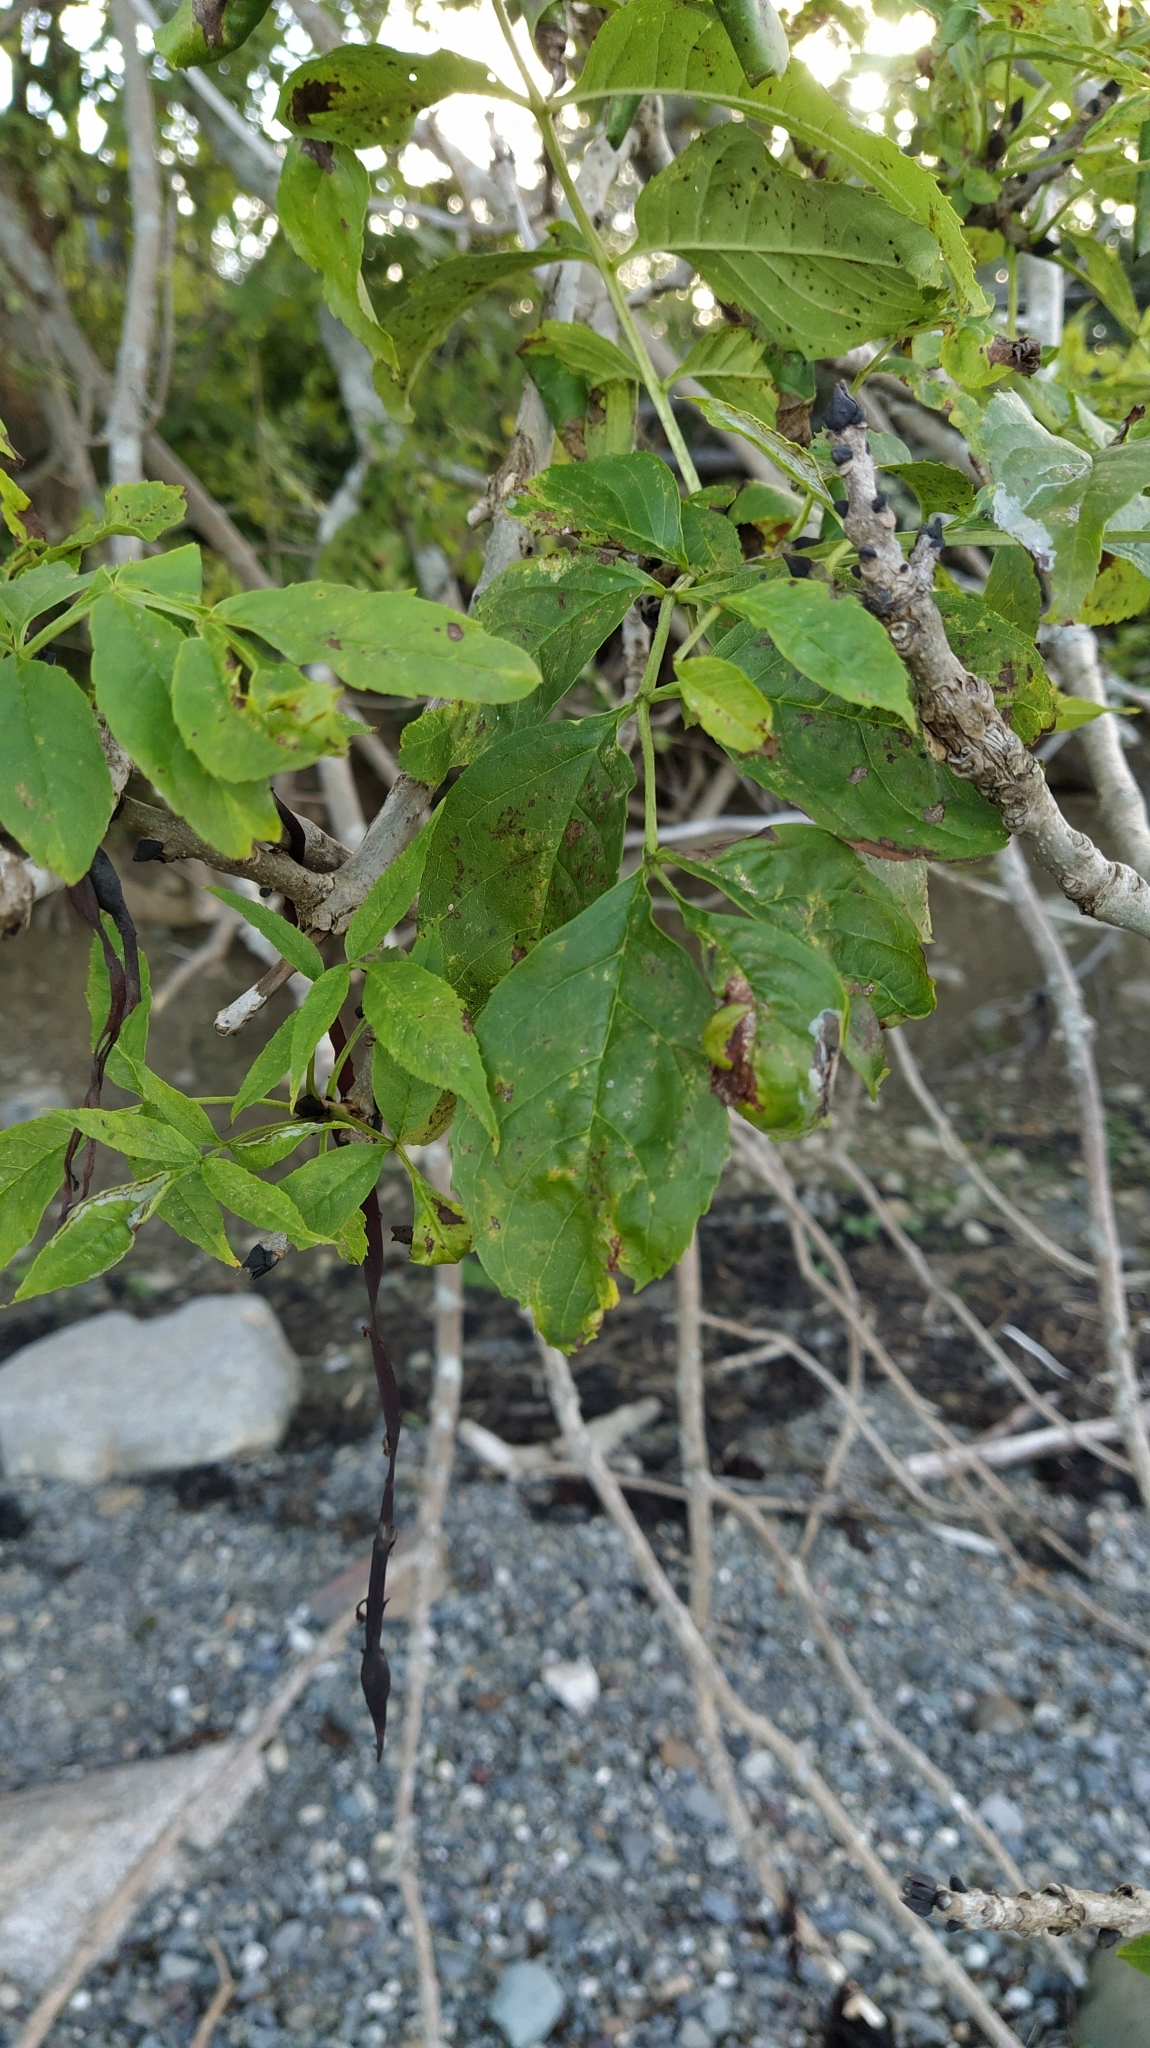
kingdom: Plantae
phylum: Tracheophyta
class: Magnoliopsida
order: Lamiales
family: Oleaceae
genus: Fraxinus
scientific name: Fraxinus excelsior
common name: European ash
